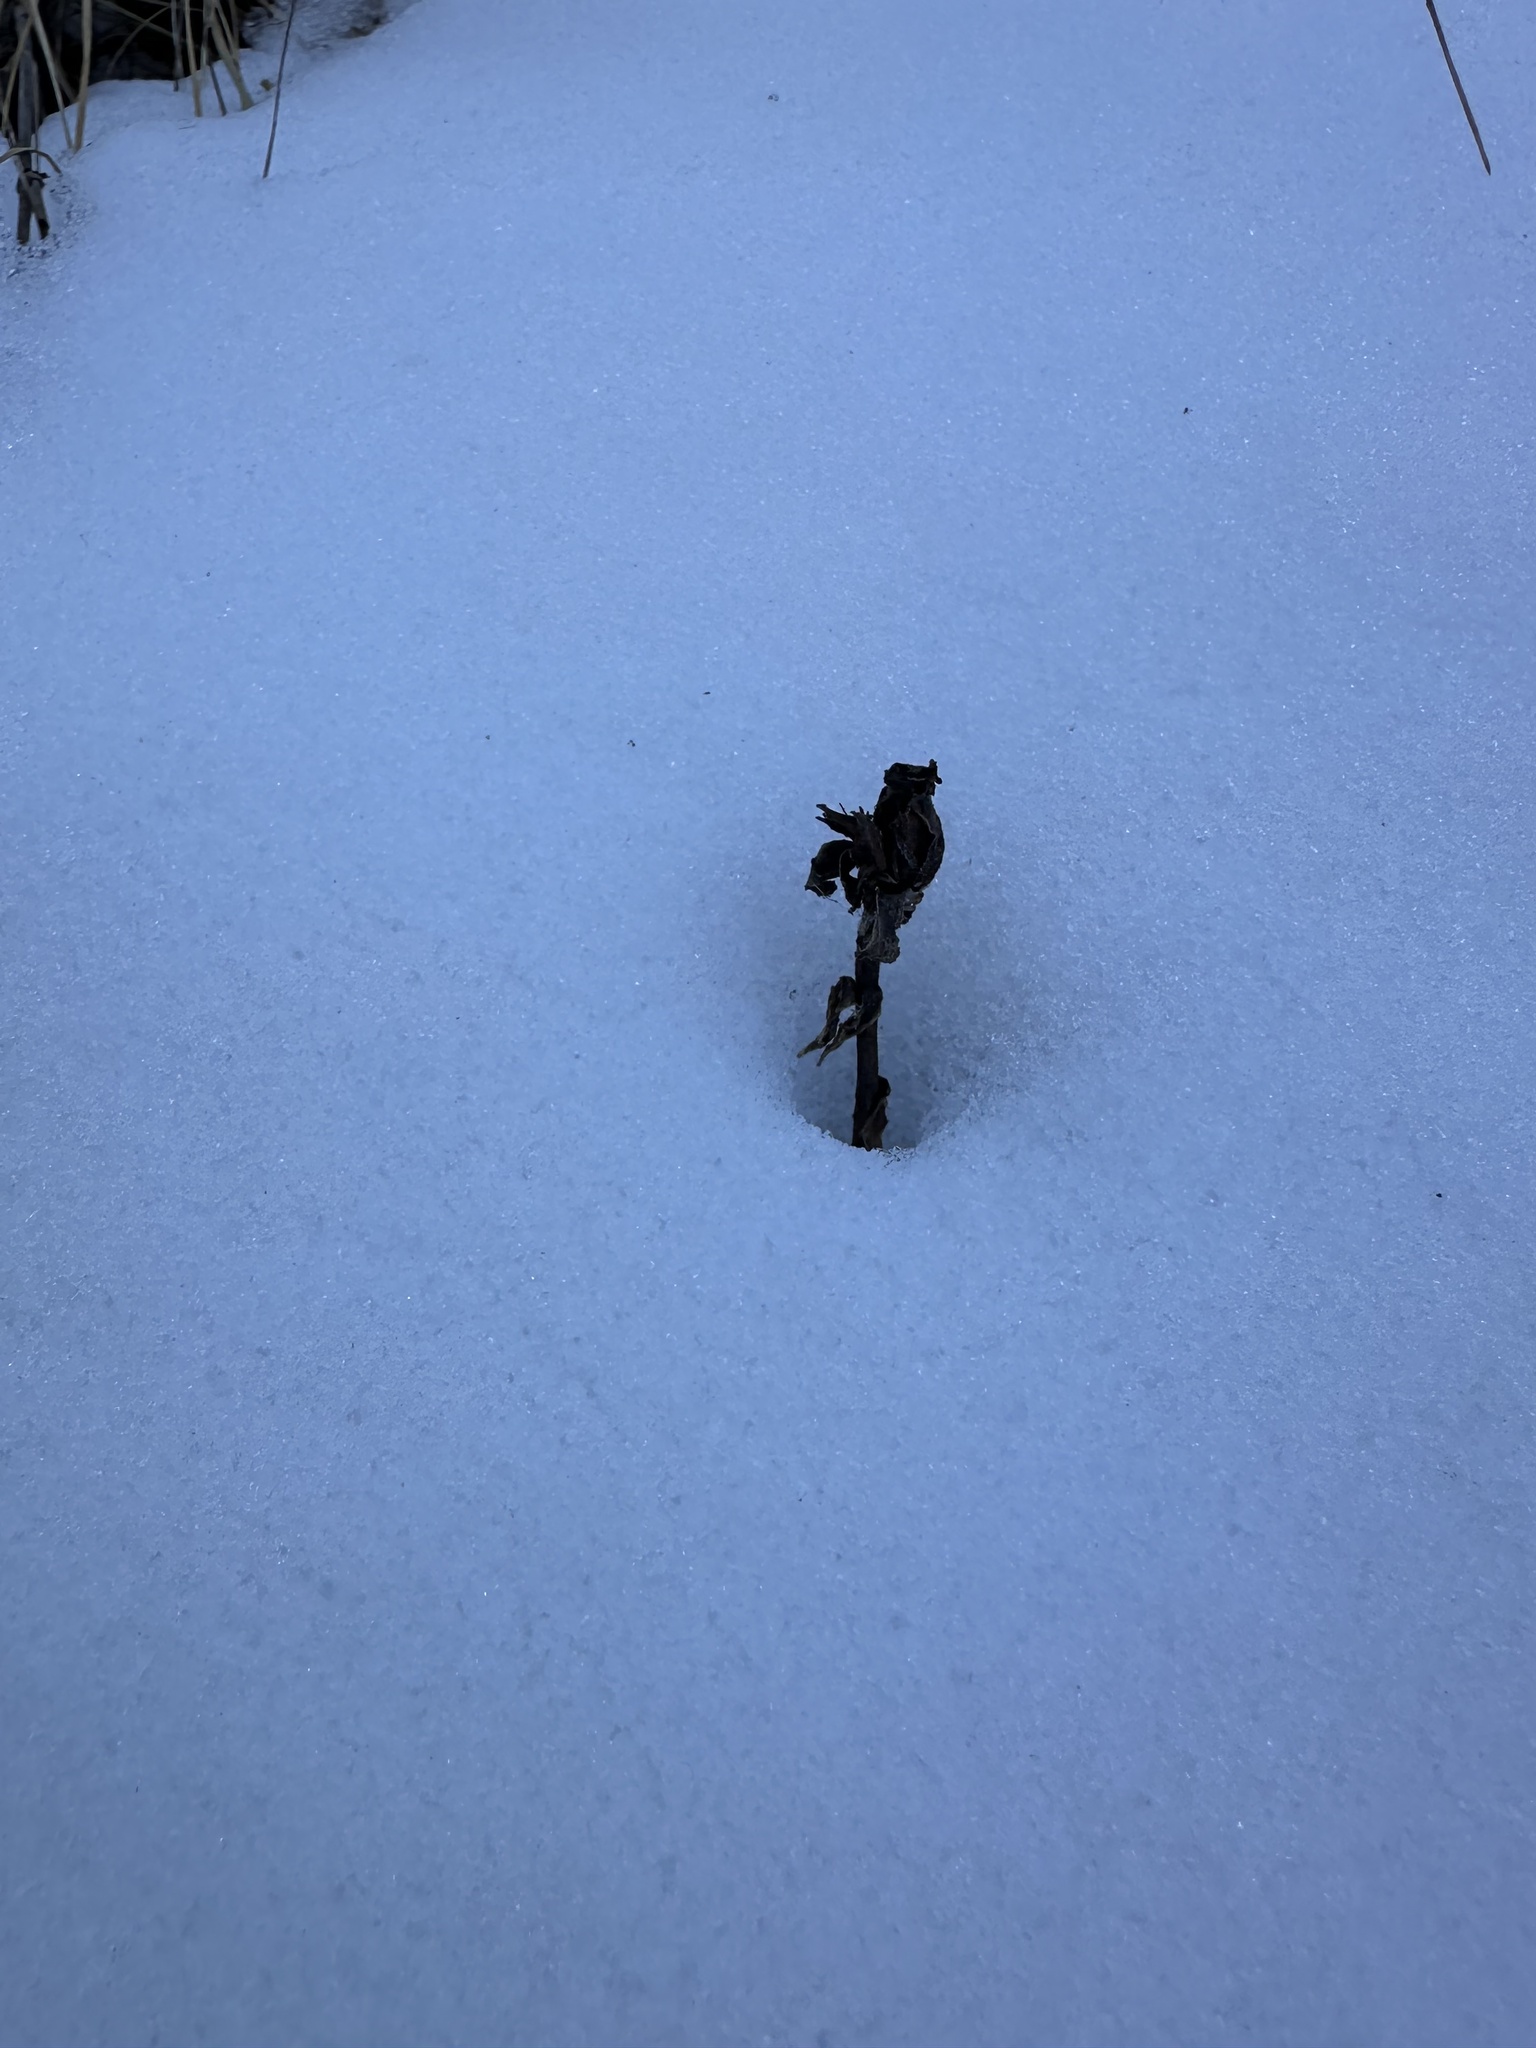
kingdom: Plantae
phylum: Tracheophyta
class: Magnoliopsida
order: Ericales
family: Ericaceae
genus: Monotropa
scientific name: Monotropa uniflora
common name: Convulsion root
